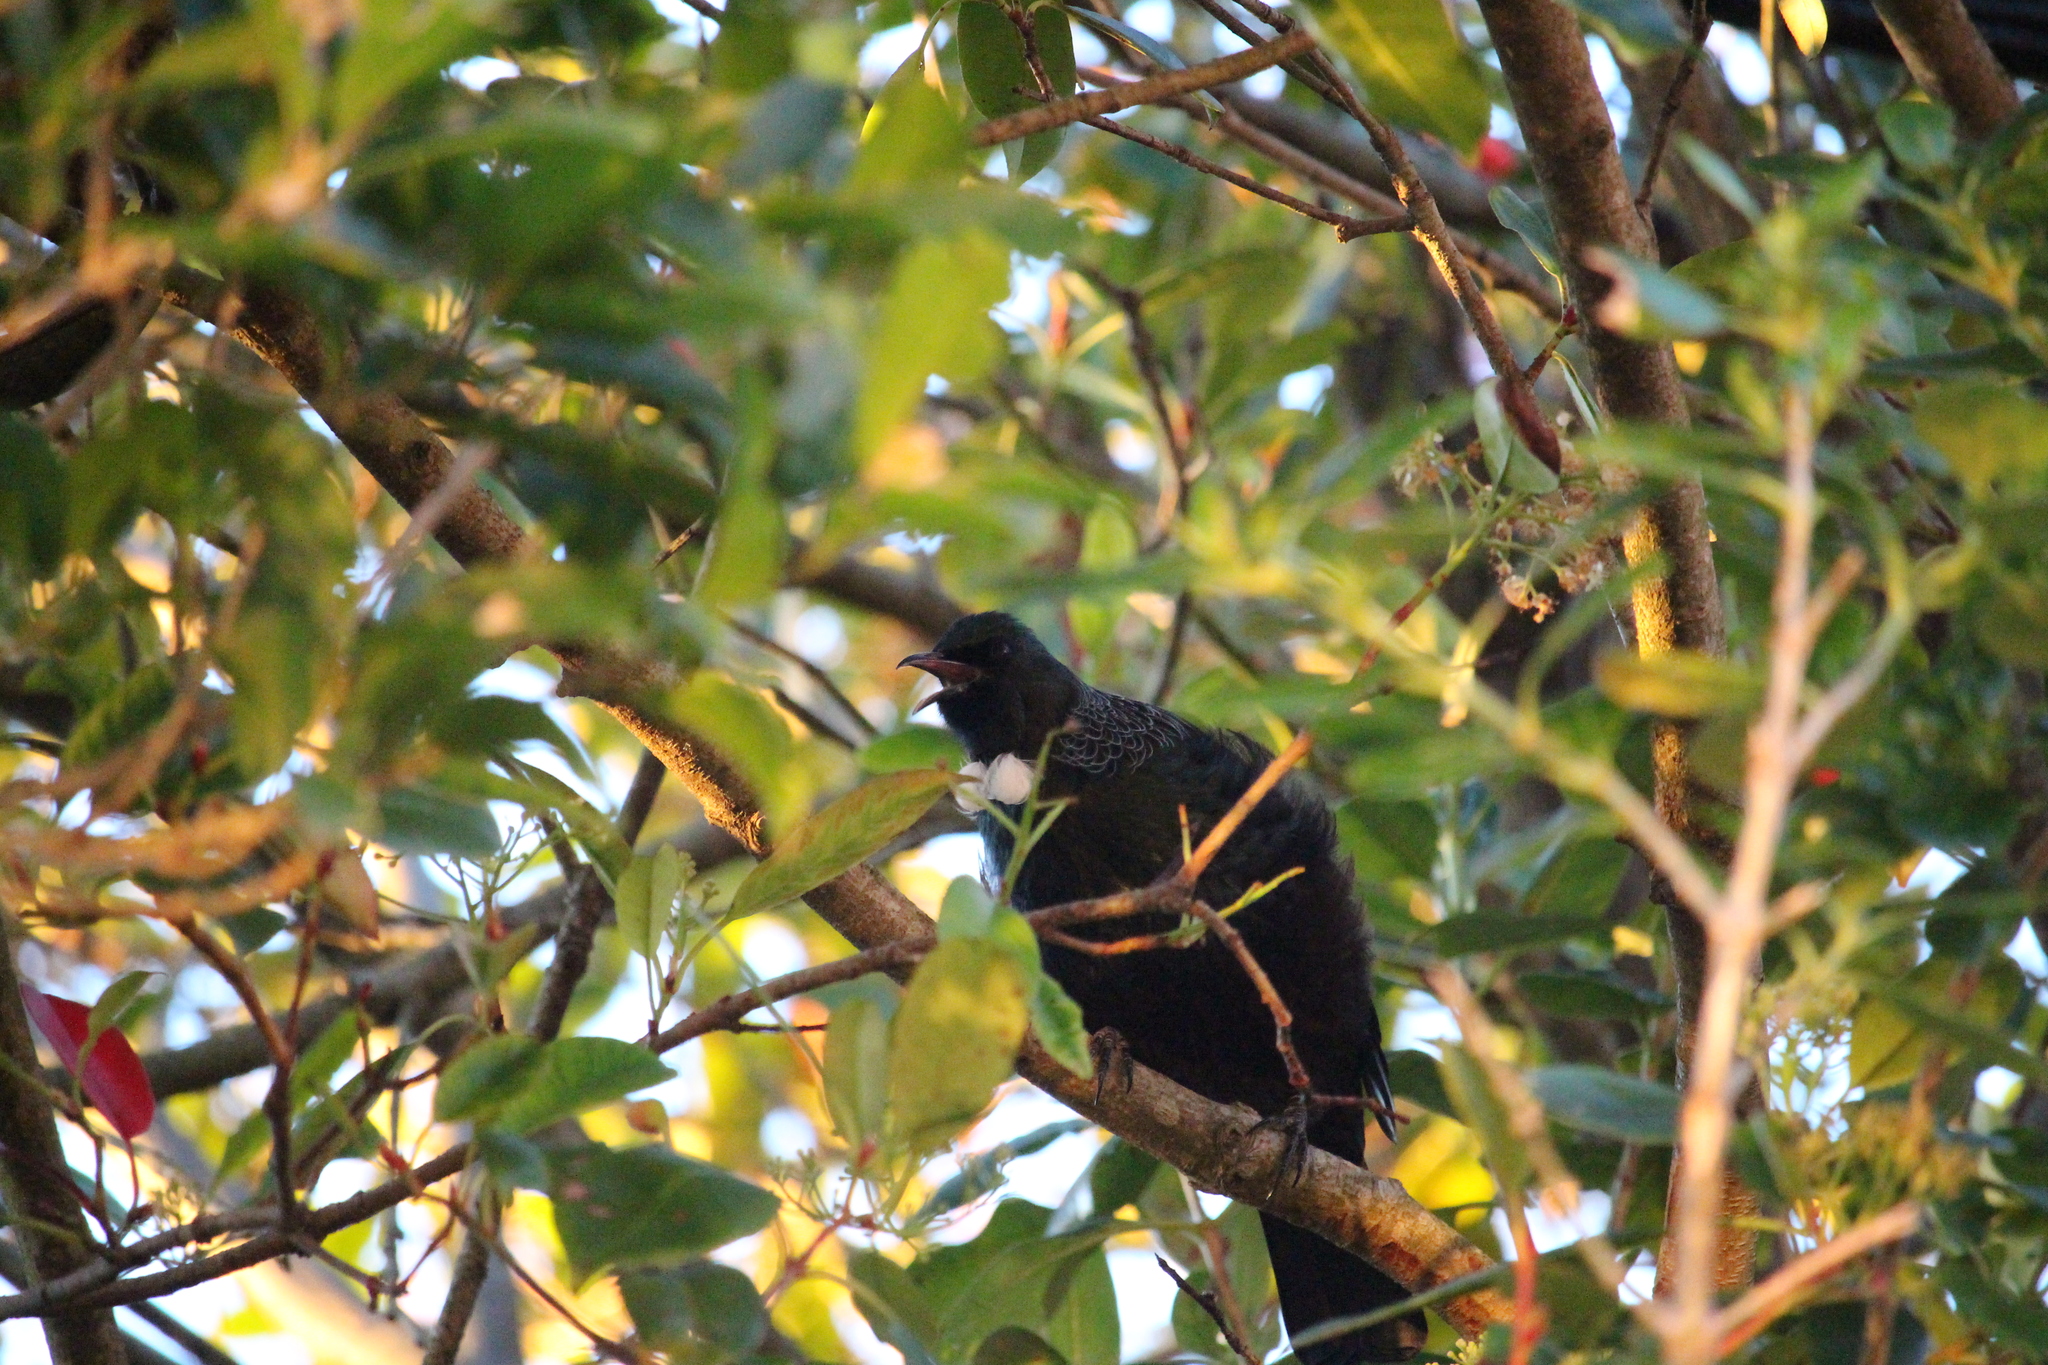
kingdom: Animalia
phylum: Chordata
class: Aves
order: Passeriformes
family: Meliphagidae
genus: Prosthemadera
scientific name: Prosthemadera novaeseelandiae
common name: Tui
